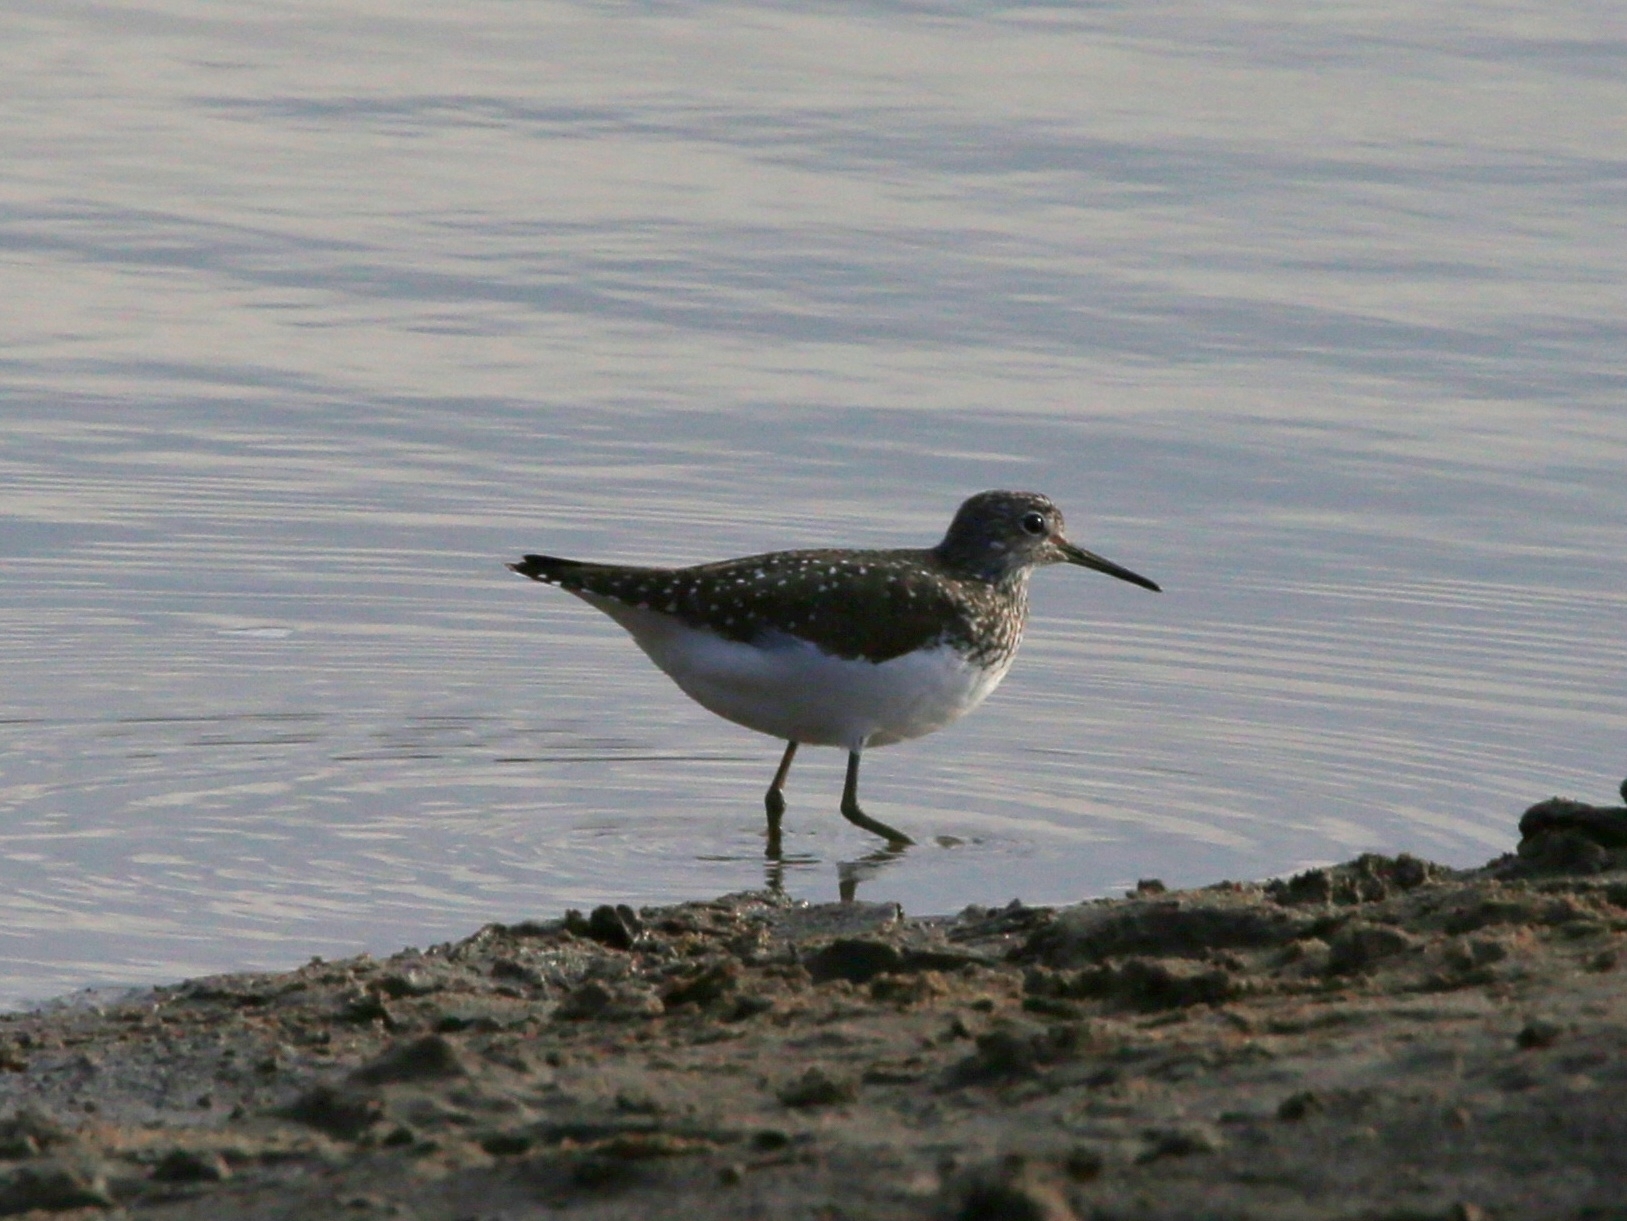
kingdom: Animalia
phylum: Chordata
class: Aves
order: Charadriiformes
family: Scolopacidae
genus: Tringa
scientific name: Tringa ochropus
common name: Green sandpiper
